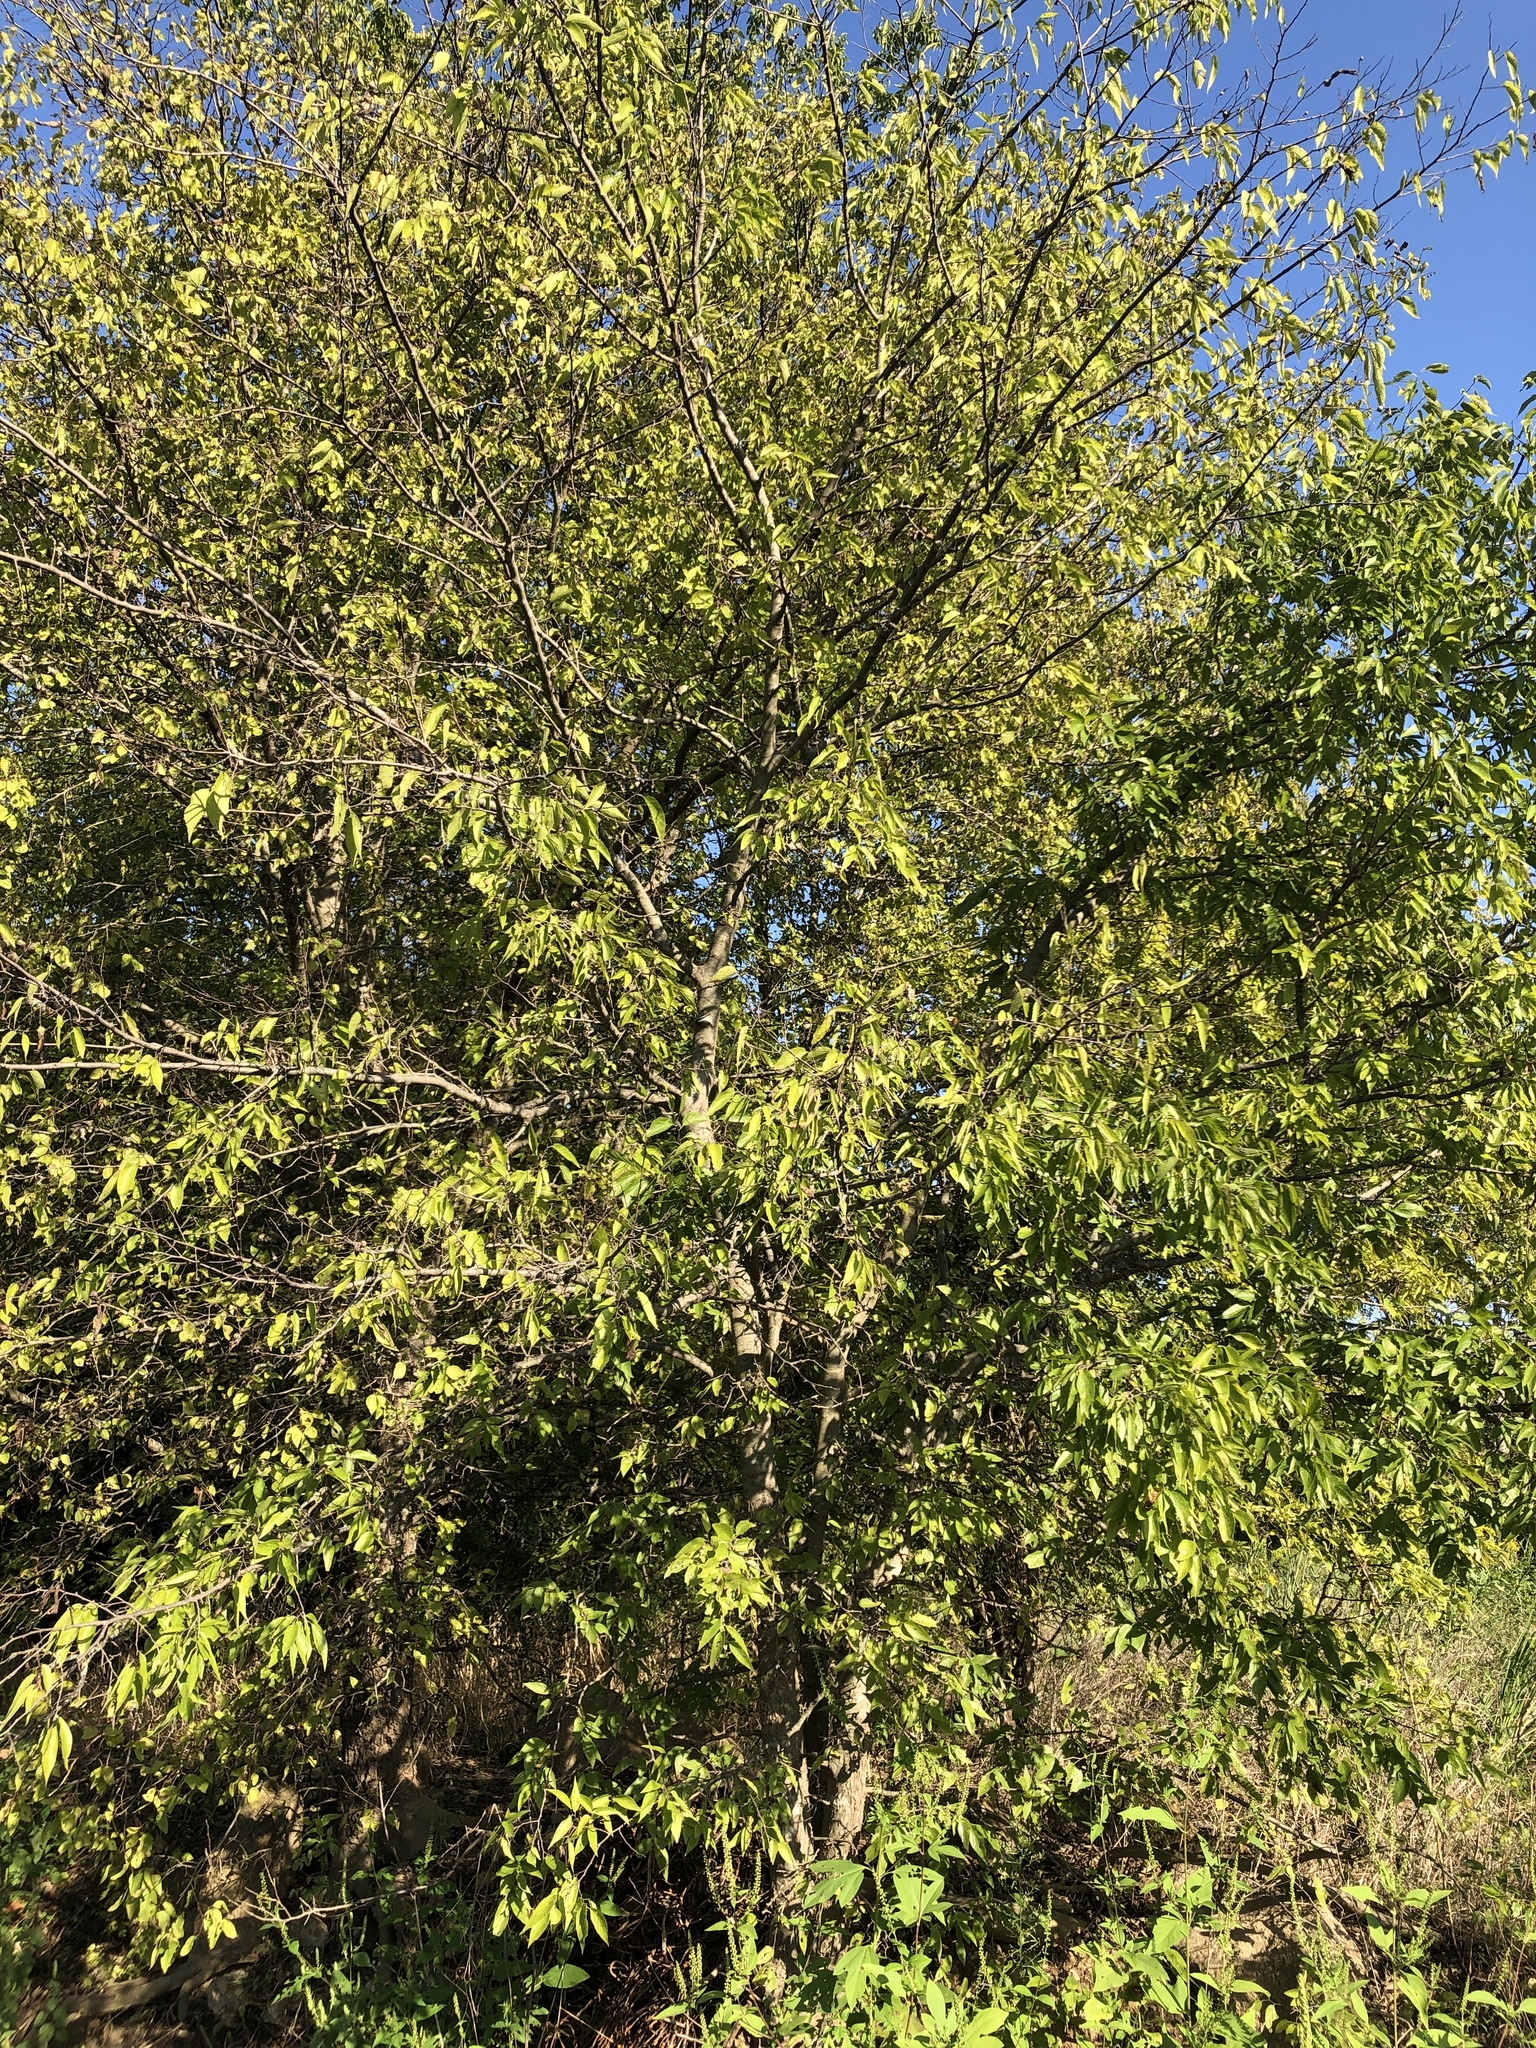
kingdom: Plantae
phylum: Tracheophyta
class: Magnoliopsida
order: Rosales
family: Cannabaceae
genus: Celtis
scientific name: Celtis laevigata
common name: Sugarberry
